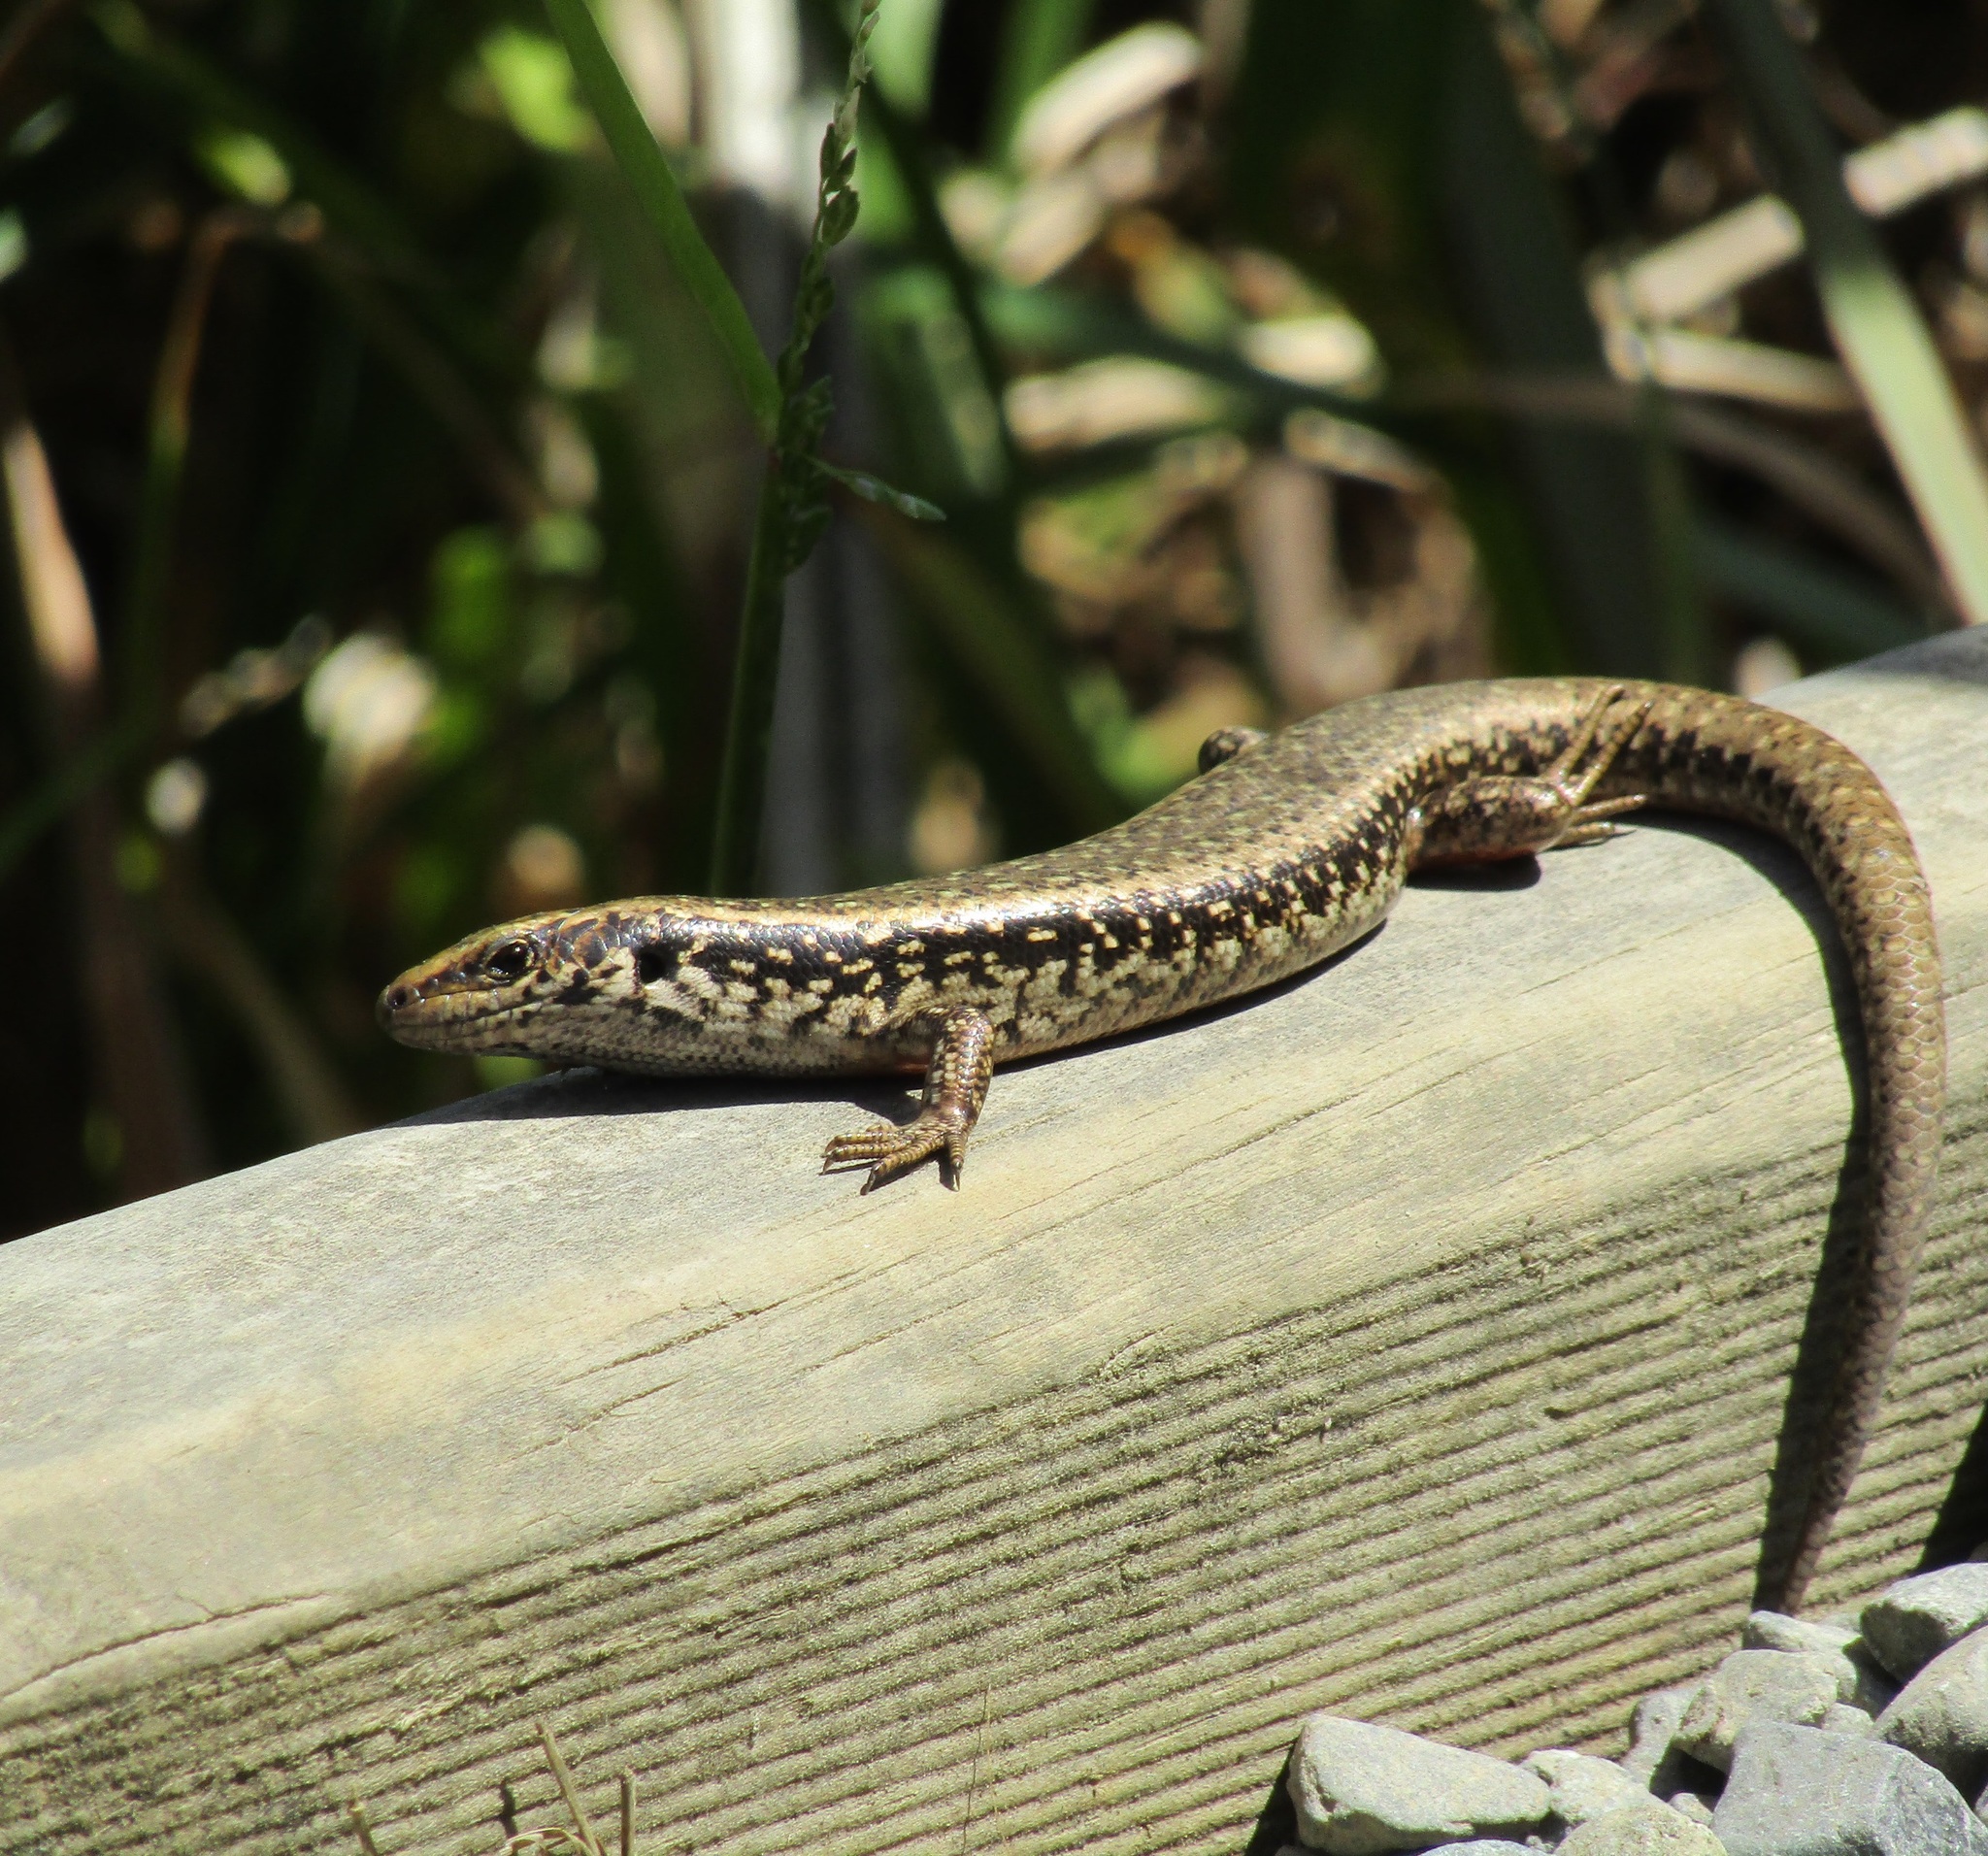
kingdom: Animalia
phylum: Chordata
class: Squamata
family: Scincidae
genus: Oligosoma
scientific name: Oligosoma kokowai
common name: Northern spotted skink
